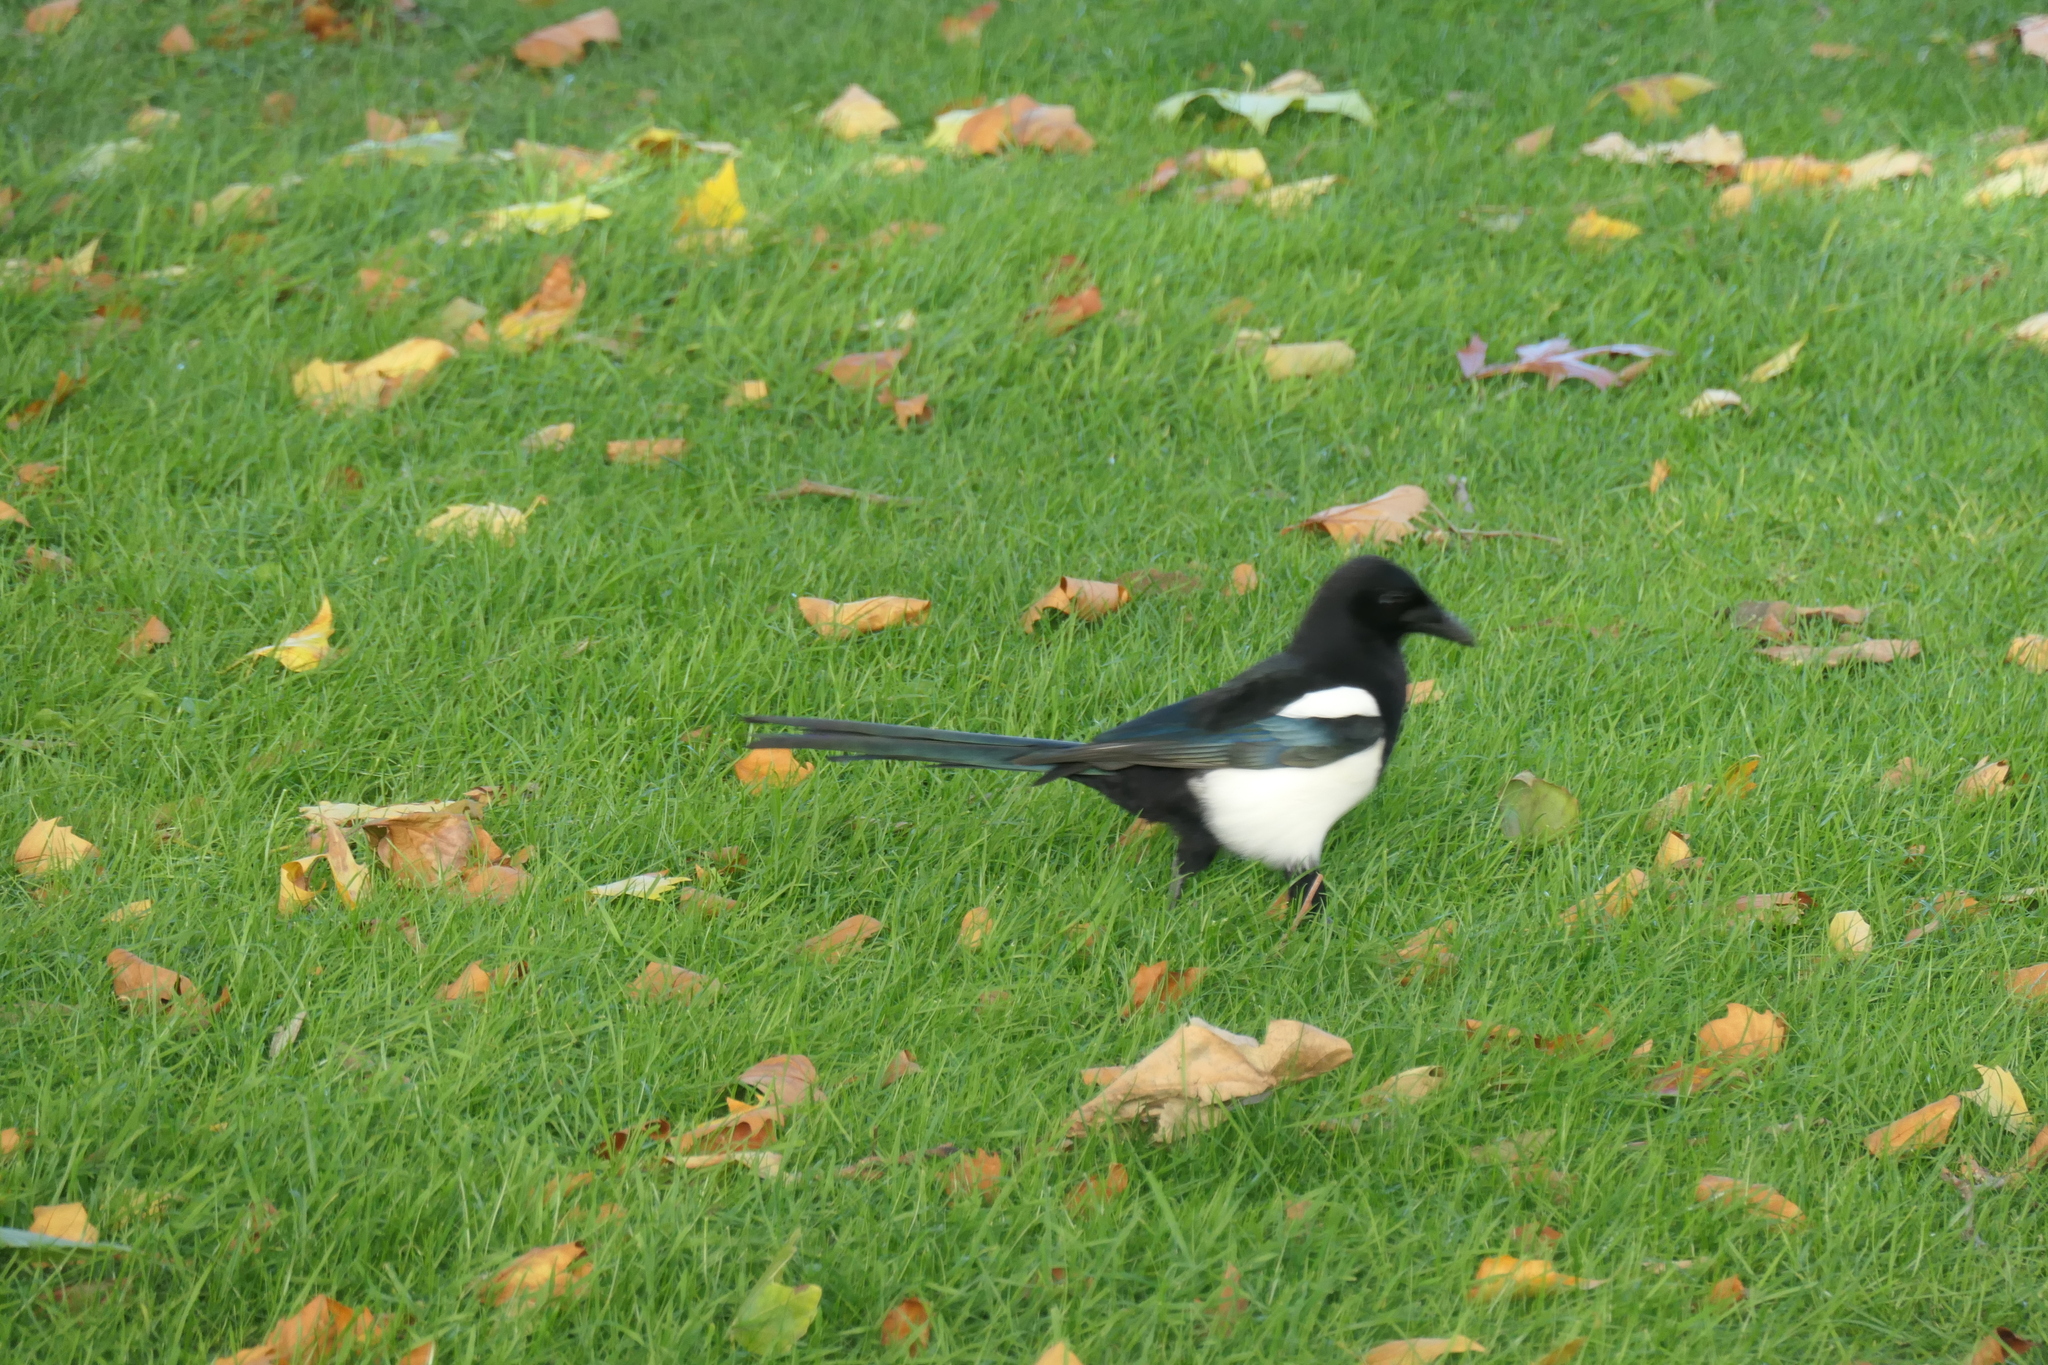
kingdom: Animalia
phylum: Chordata
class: Aves
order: Passeriformes
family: Corvidae
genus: Pica
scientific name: Pica pica
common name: Eurasian magpie
